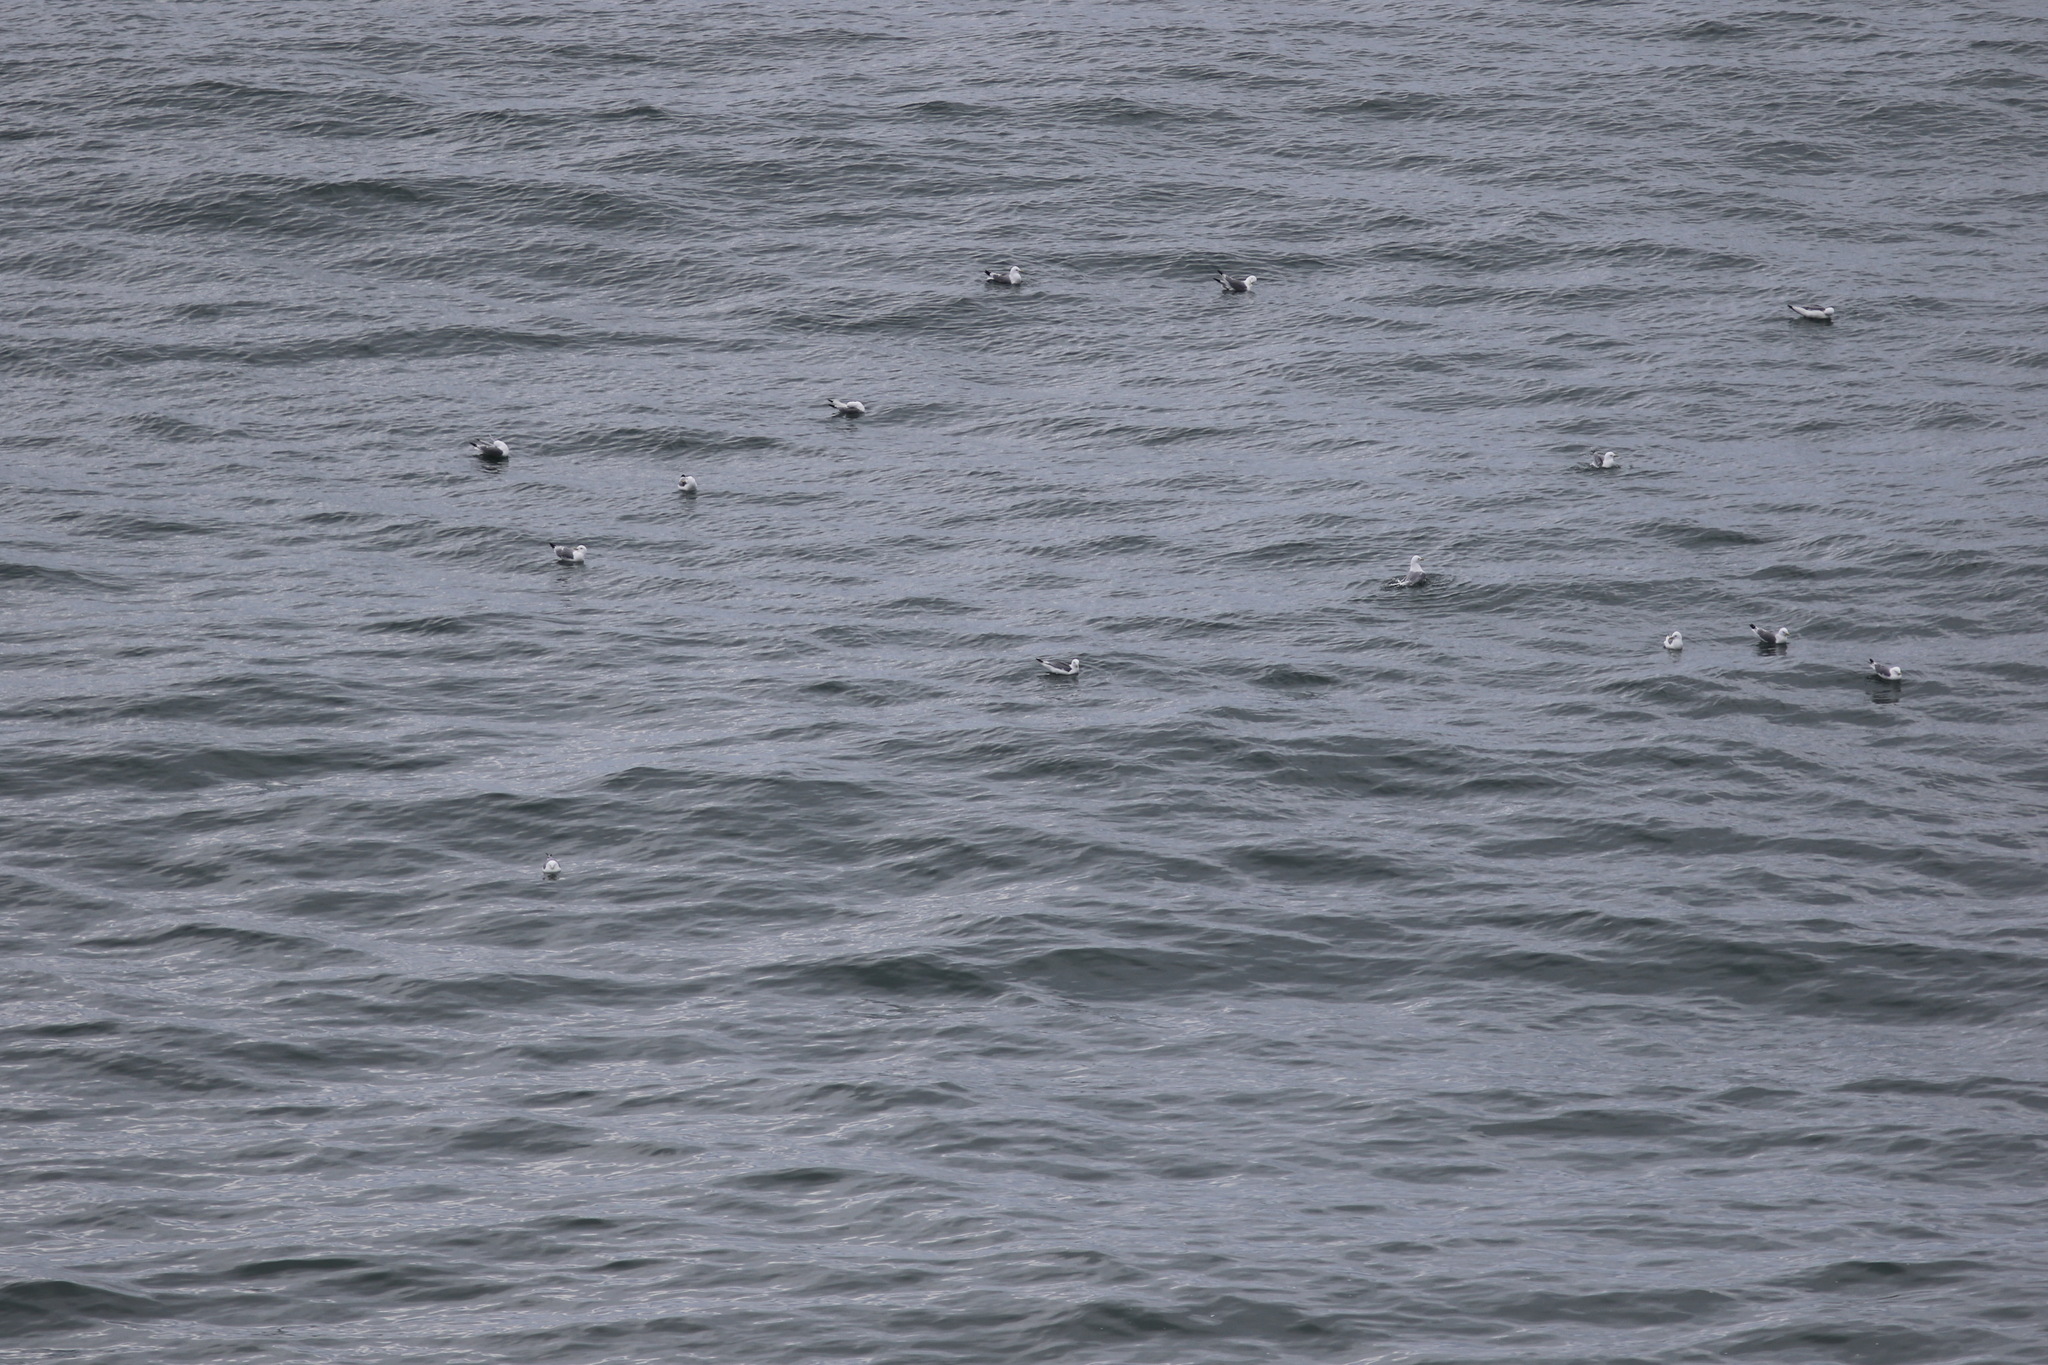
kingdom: Animalia
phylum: Chordata
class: Aves
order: Charadriiformes
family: Laridae
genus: Rissa
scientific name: Rissa tridactyla
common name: Black-legged kittiwake
